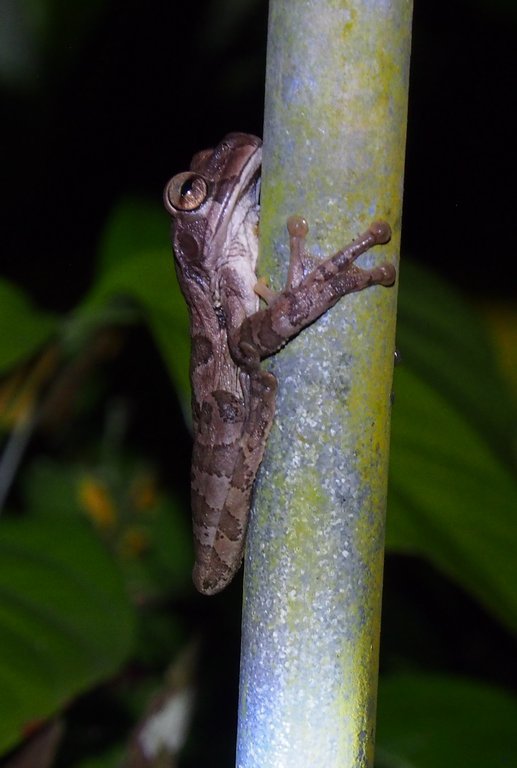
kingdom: Animalia
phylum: Chordata
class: Amphibia
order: Anura
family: Hylidae
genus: Smilisca
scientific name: Smilisca sordida
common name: Veragua cross-banded treefrog
